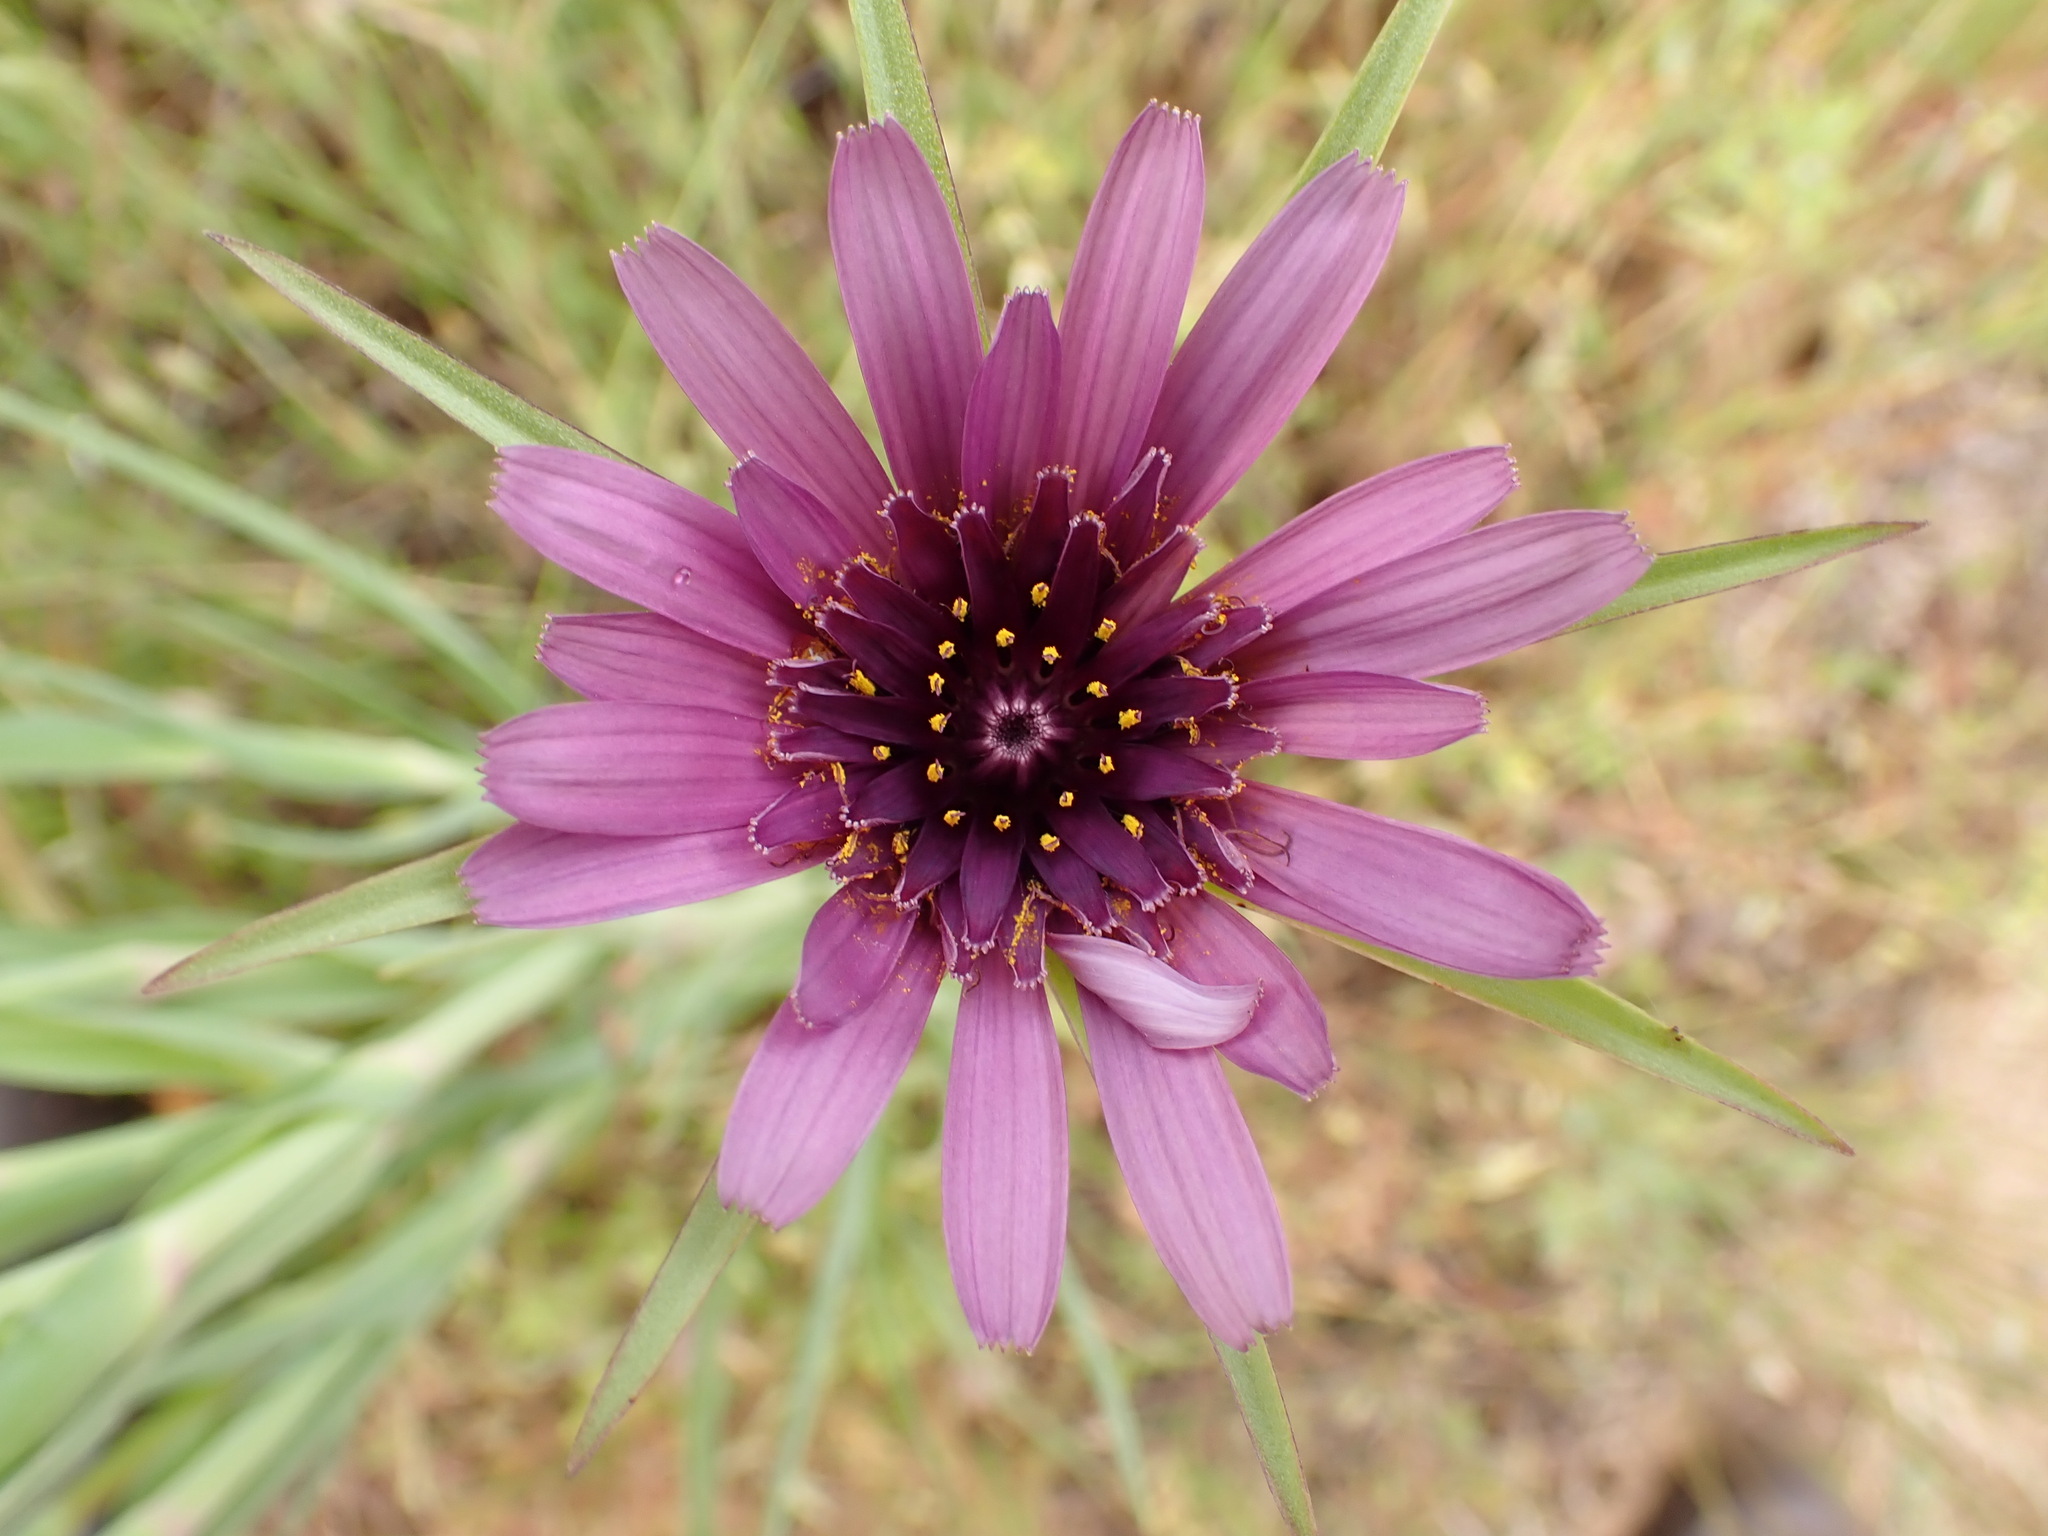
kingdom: Plantae
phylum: Tracheophyta
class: Magnoliopsida
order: Asterales
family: Asteraceae
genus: Tragopogon
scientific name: Tragopogon porrifolius
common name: Salsify
